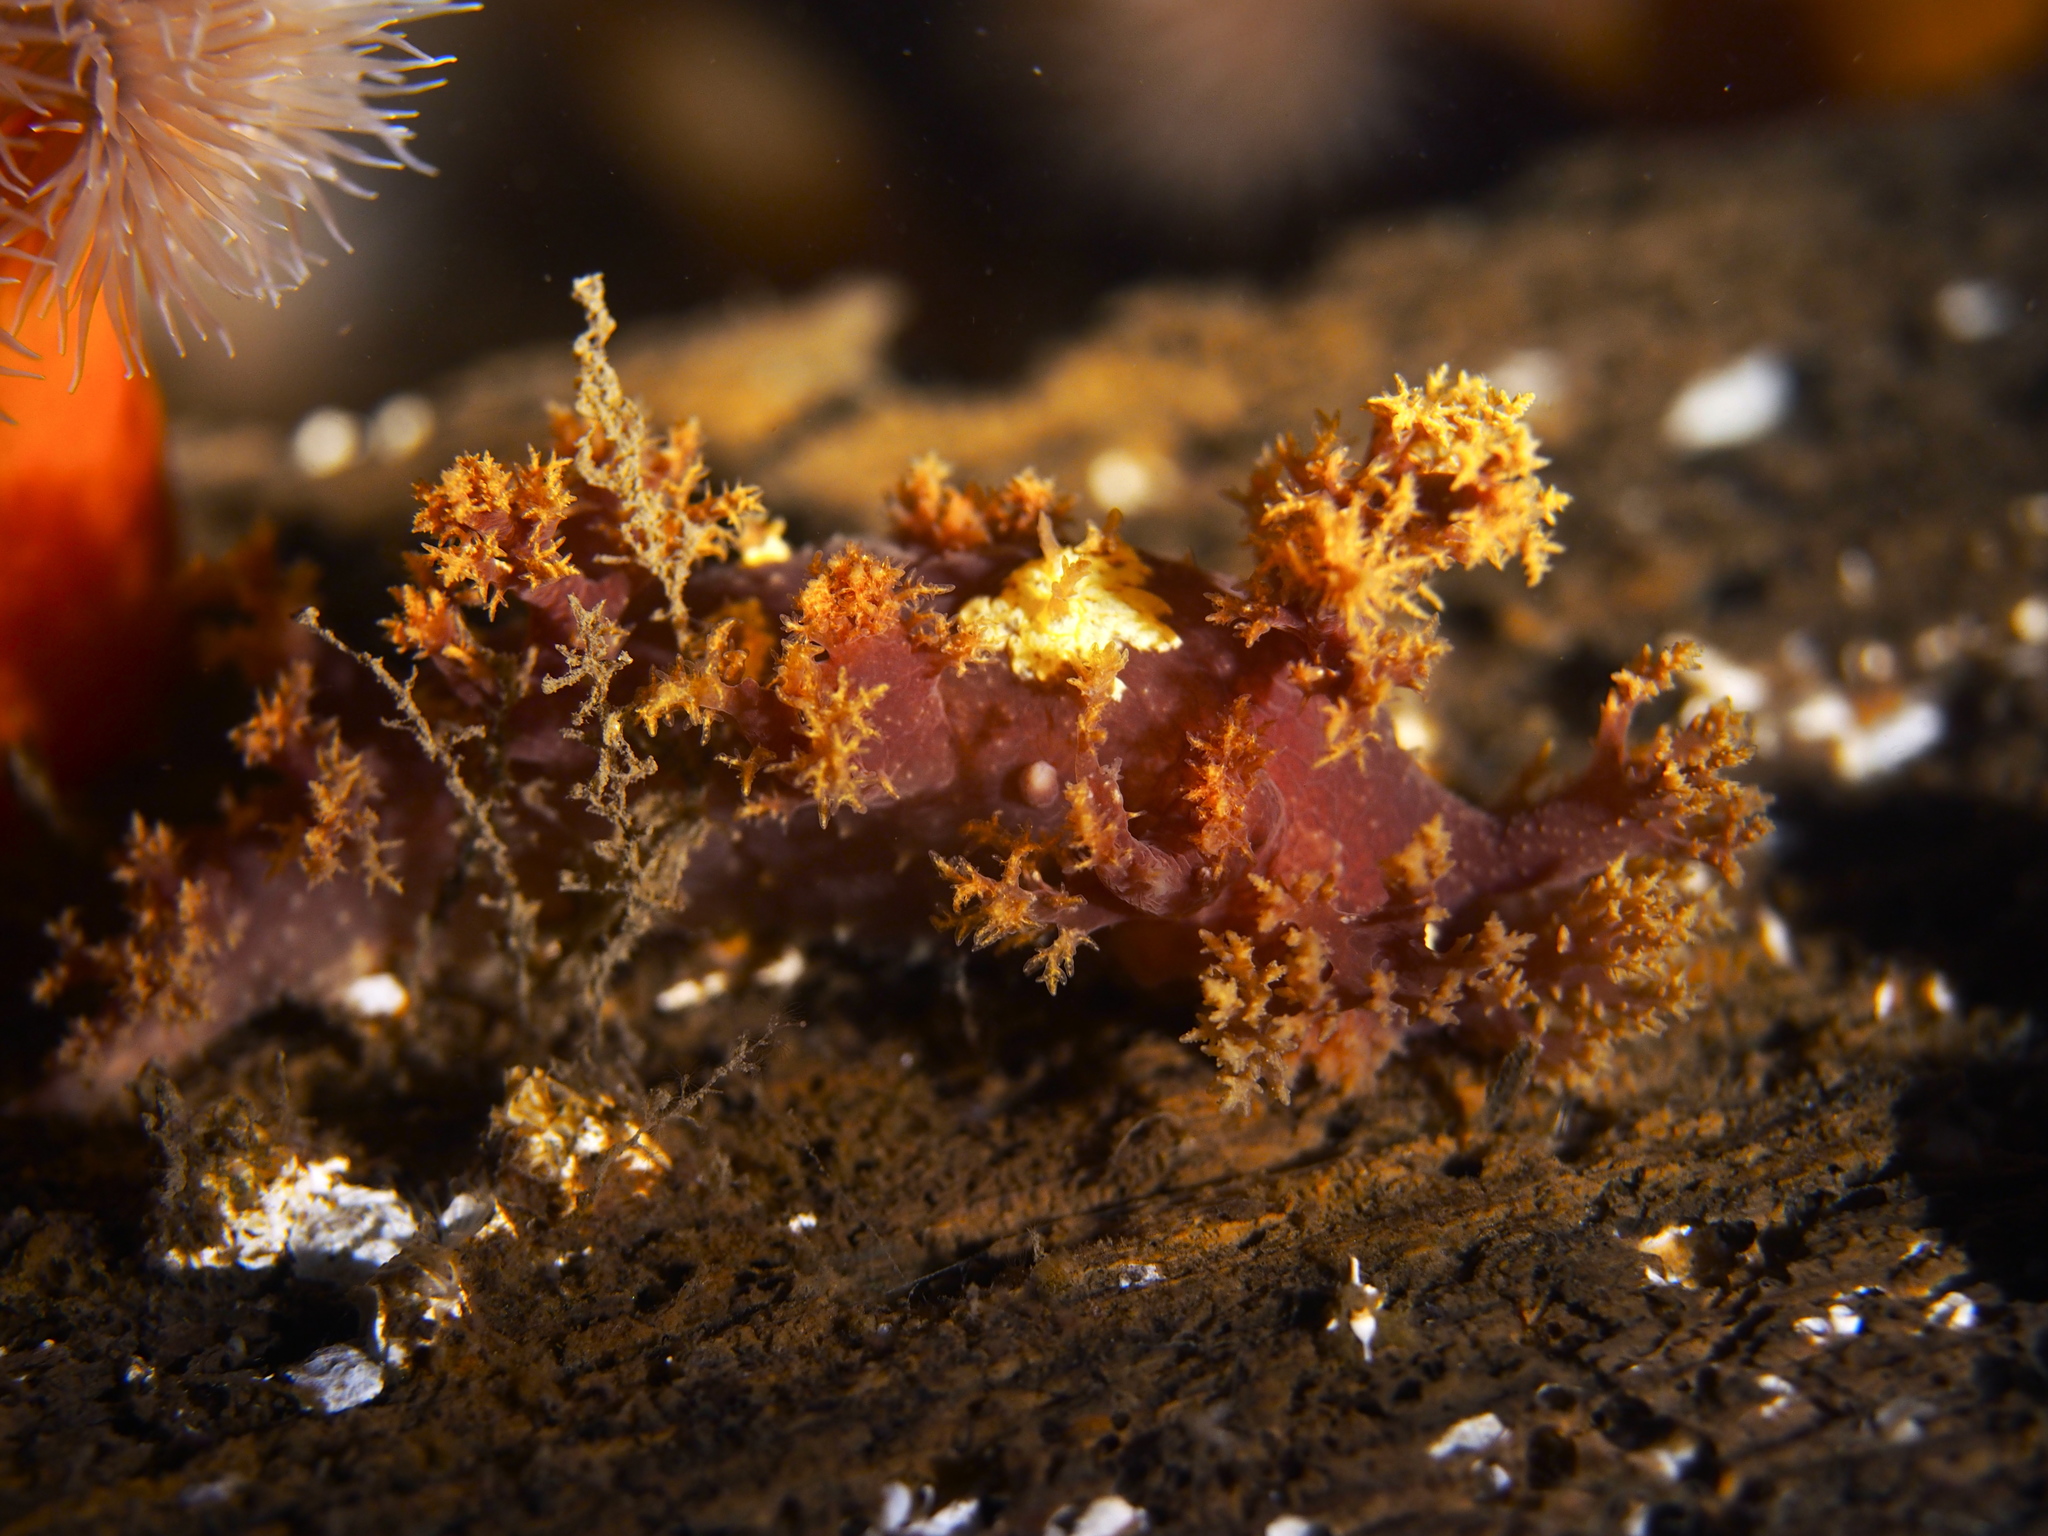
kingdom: Animalia
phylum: Mollusca
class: Gastropoda
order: Nudibranchia
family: Dendronotidae
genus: Dendronotus
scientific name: Dendronotus lacteus
